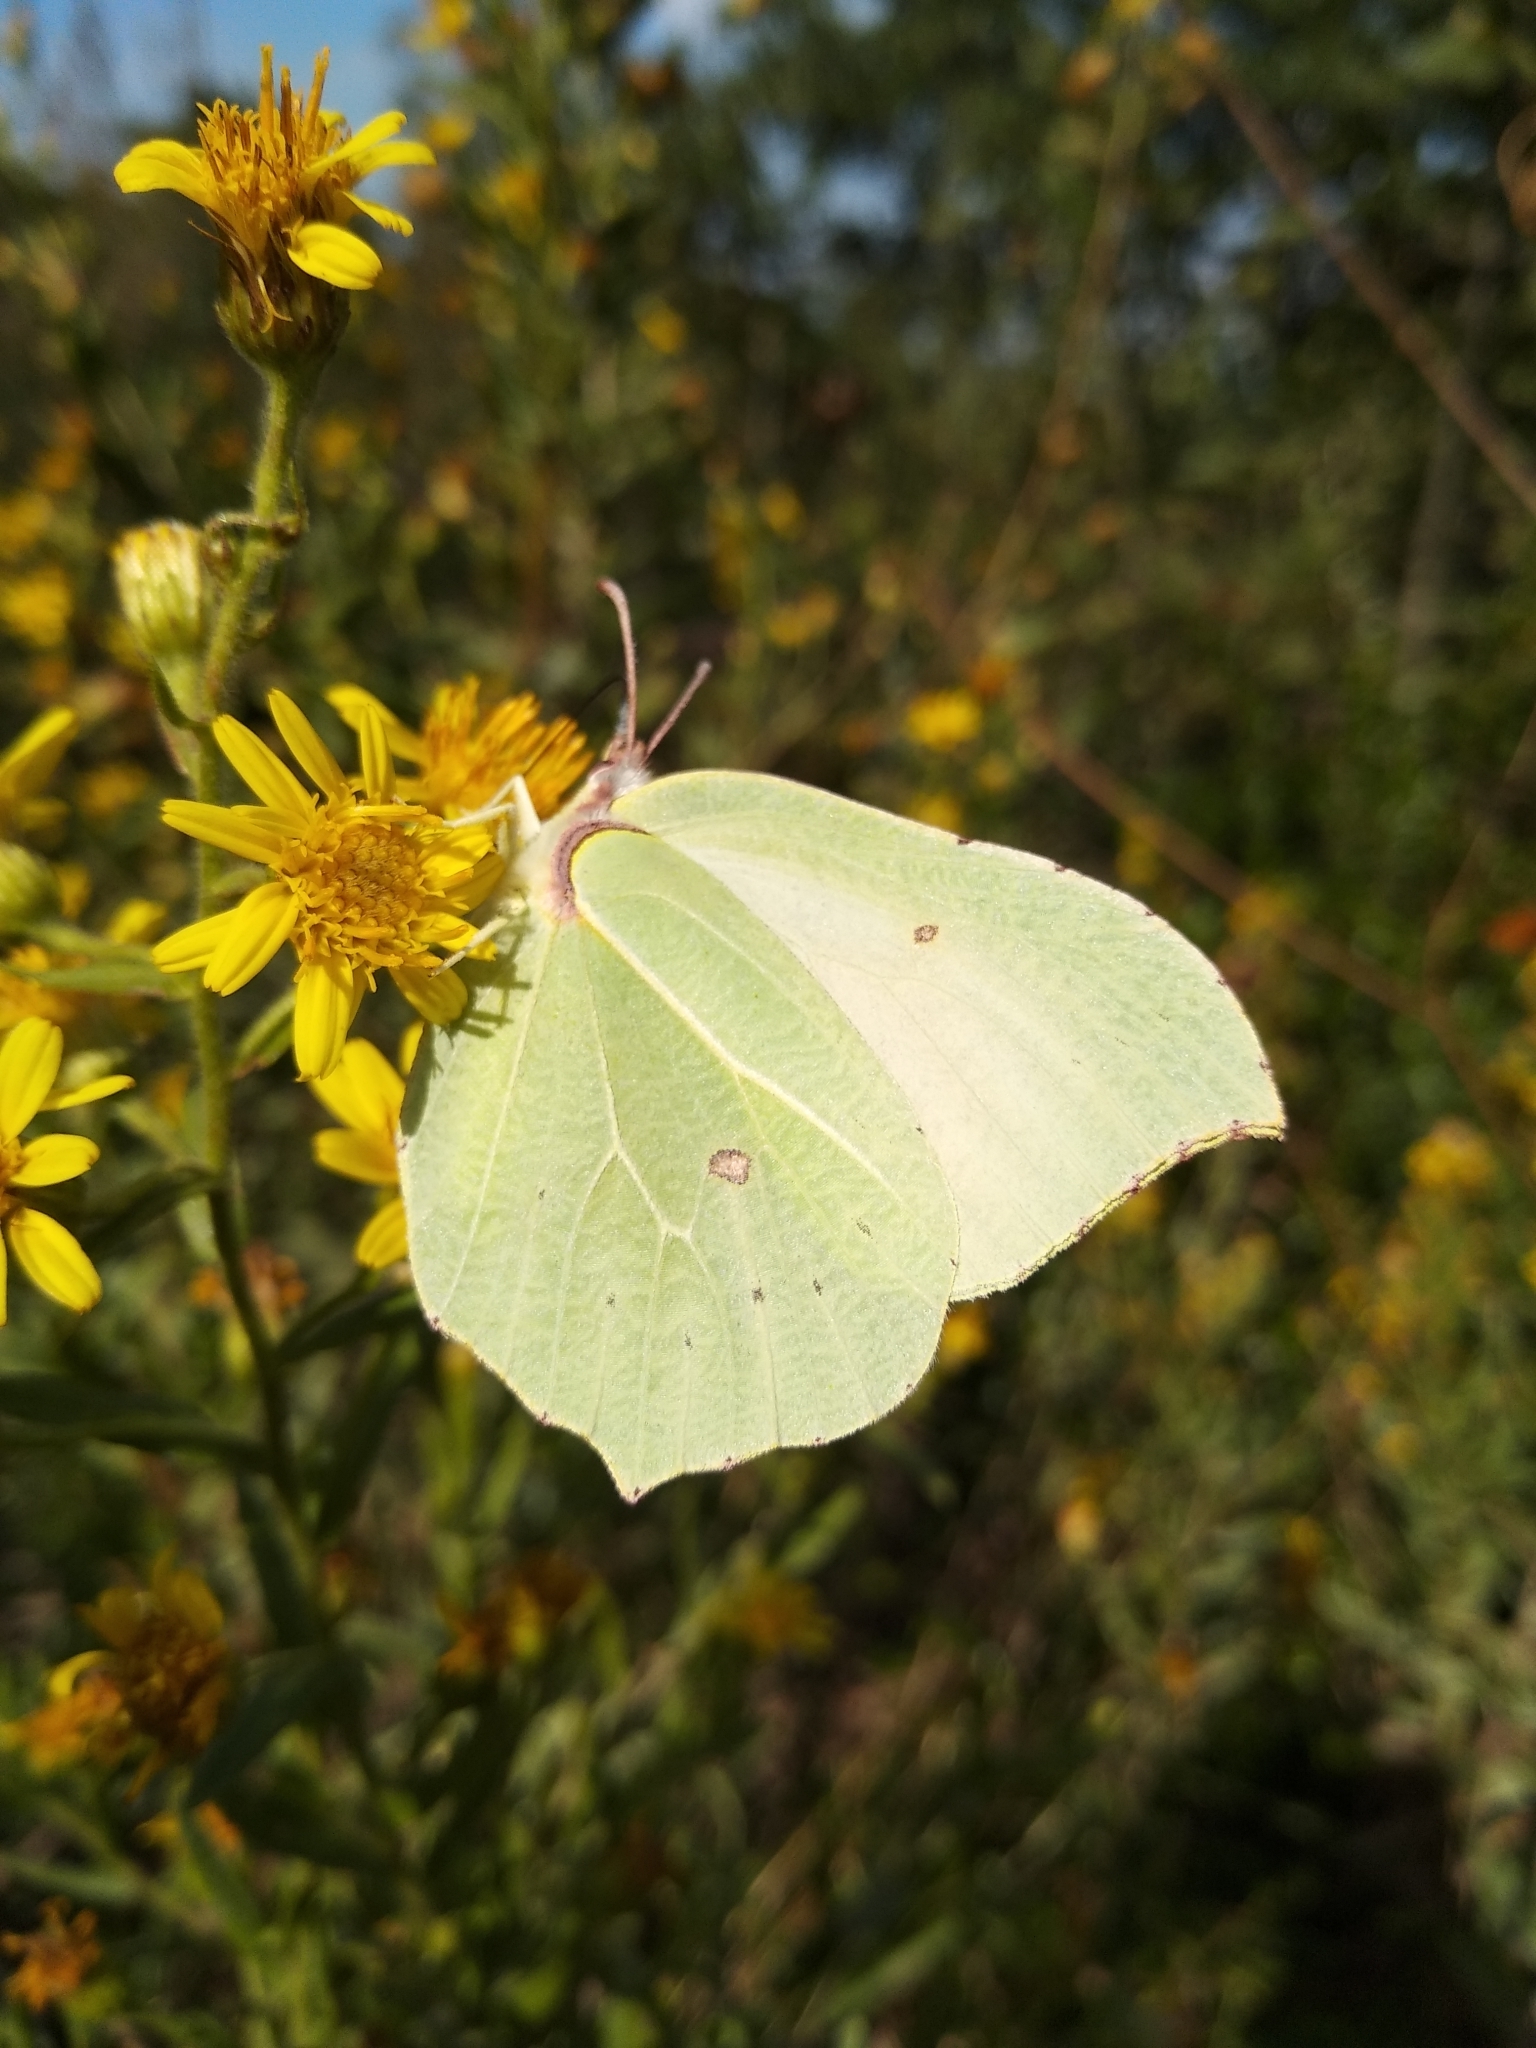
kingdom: Animalia
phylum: Arthropoda
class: Insecta
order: Lepidoptera
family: Pieridae
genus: Gonepteryx
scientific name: Gonepteryx rhamni
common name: Brimstone
